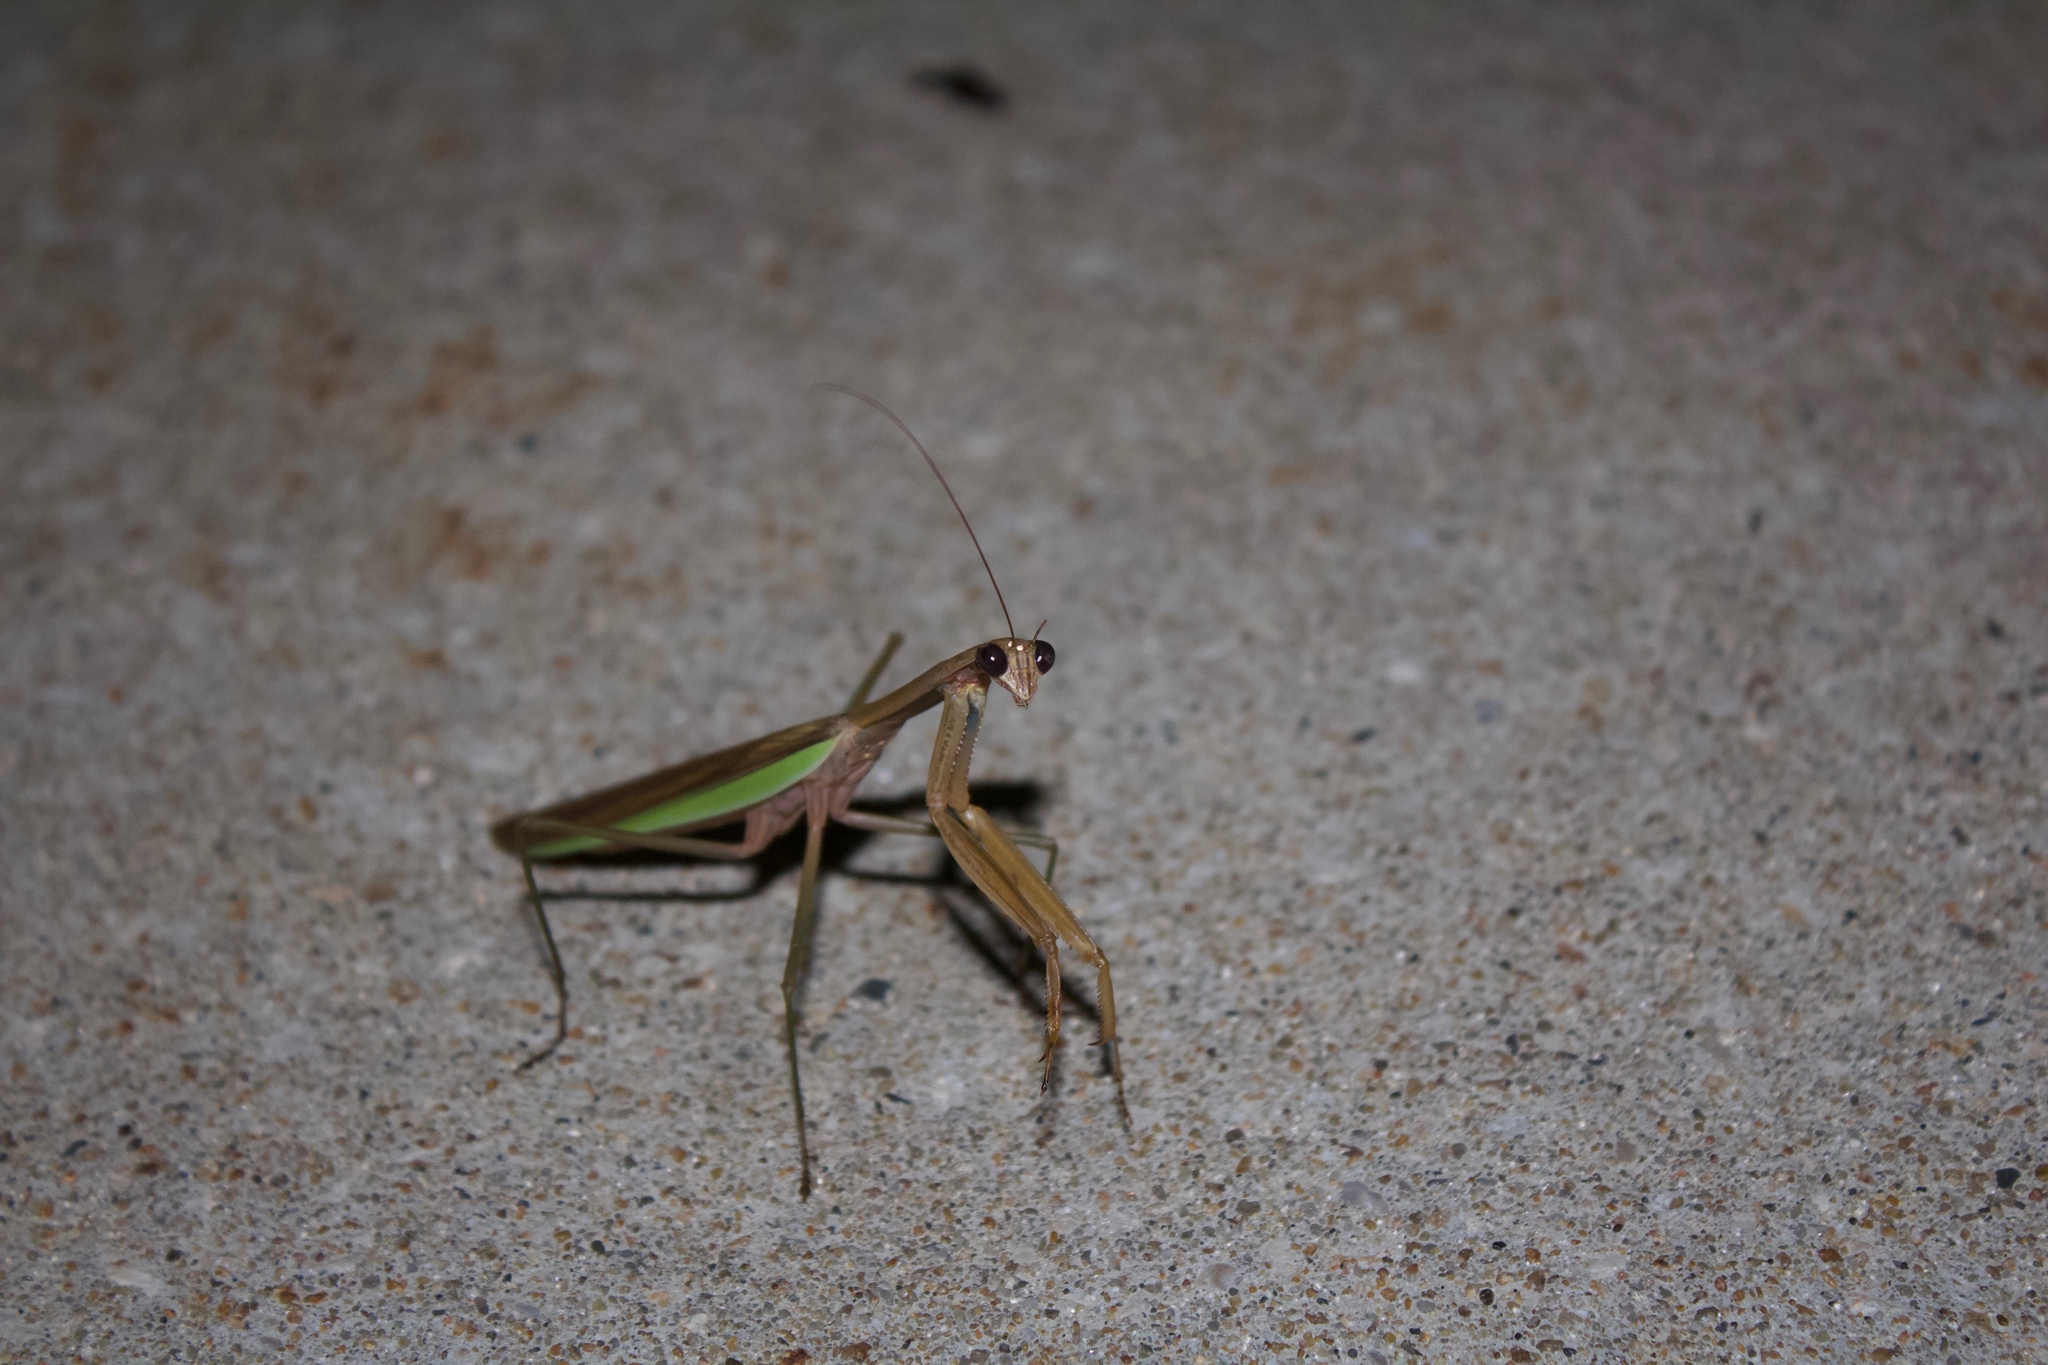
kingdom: Animalia
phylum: Arthropoda
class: Insecta
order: Mantodea
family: Mantidae
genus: Tenodera
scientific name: Tenodera sinensis
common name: Chinese mantis
